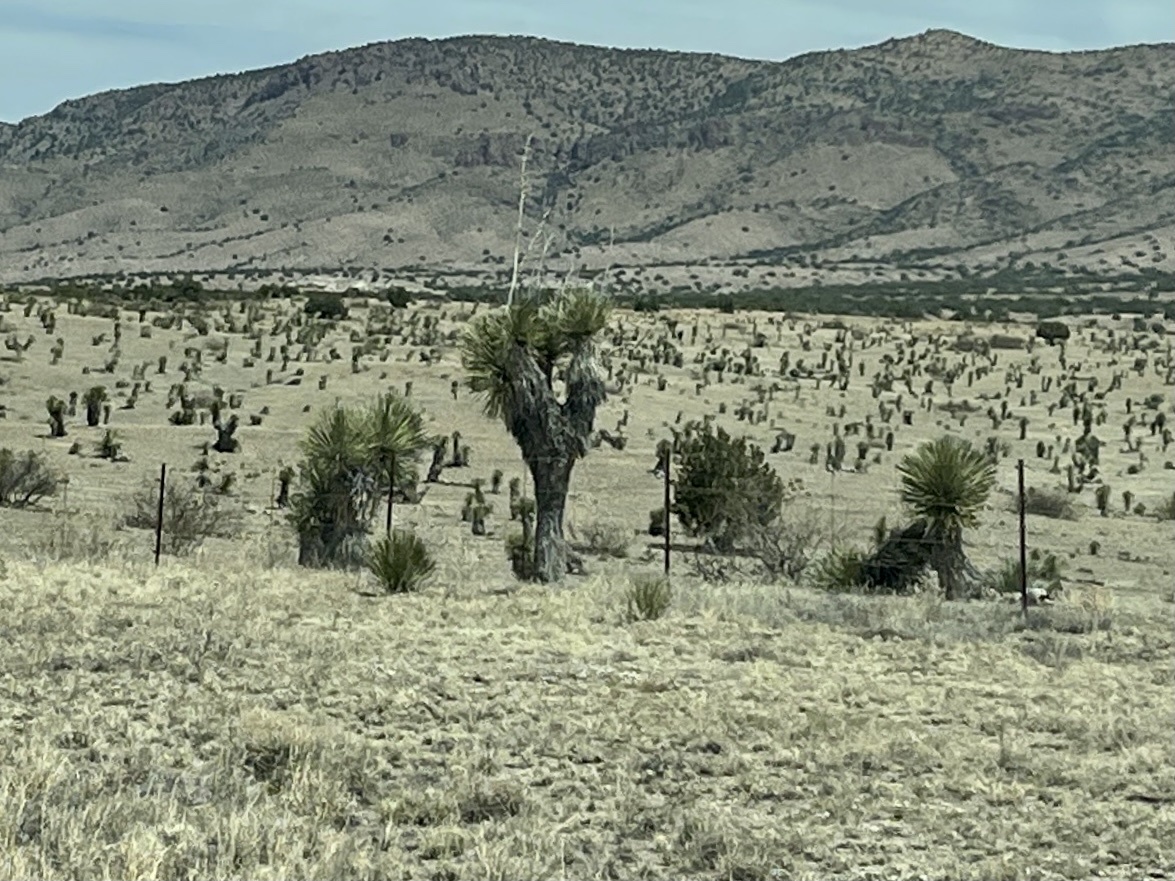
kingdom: Plantae
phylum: Tracheophyta
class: Liliopsida
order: Asparagales
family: Asparagaceae
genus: Yucca
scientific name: Yucca elata
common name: Palmella
